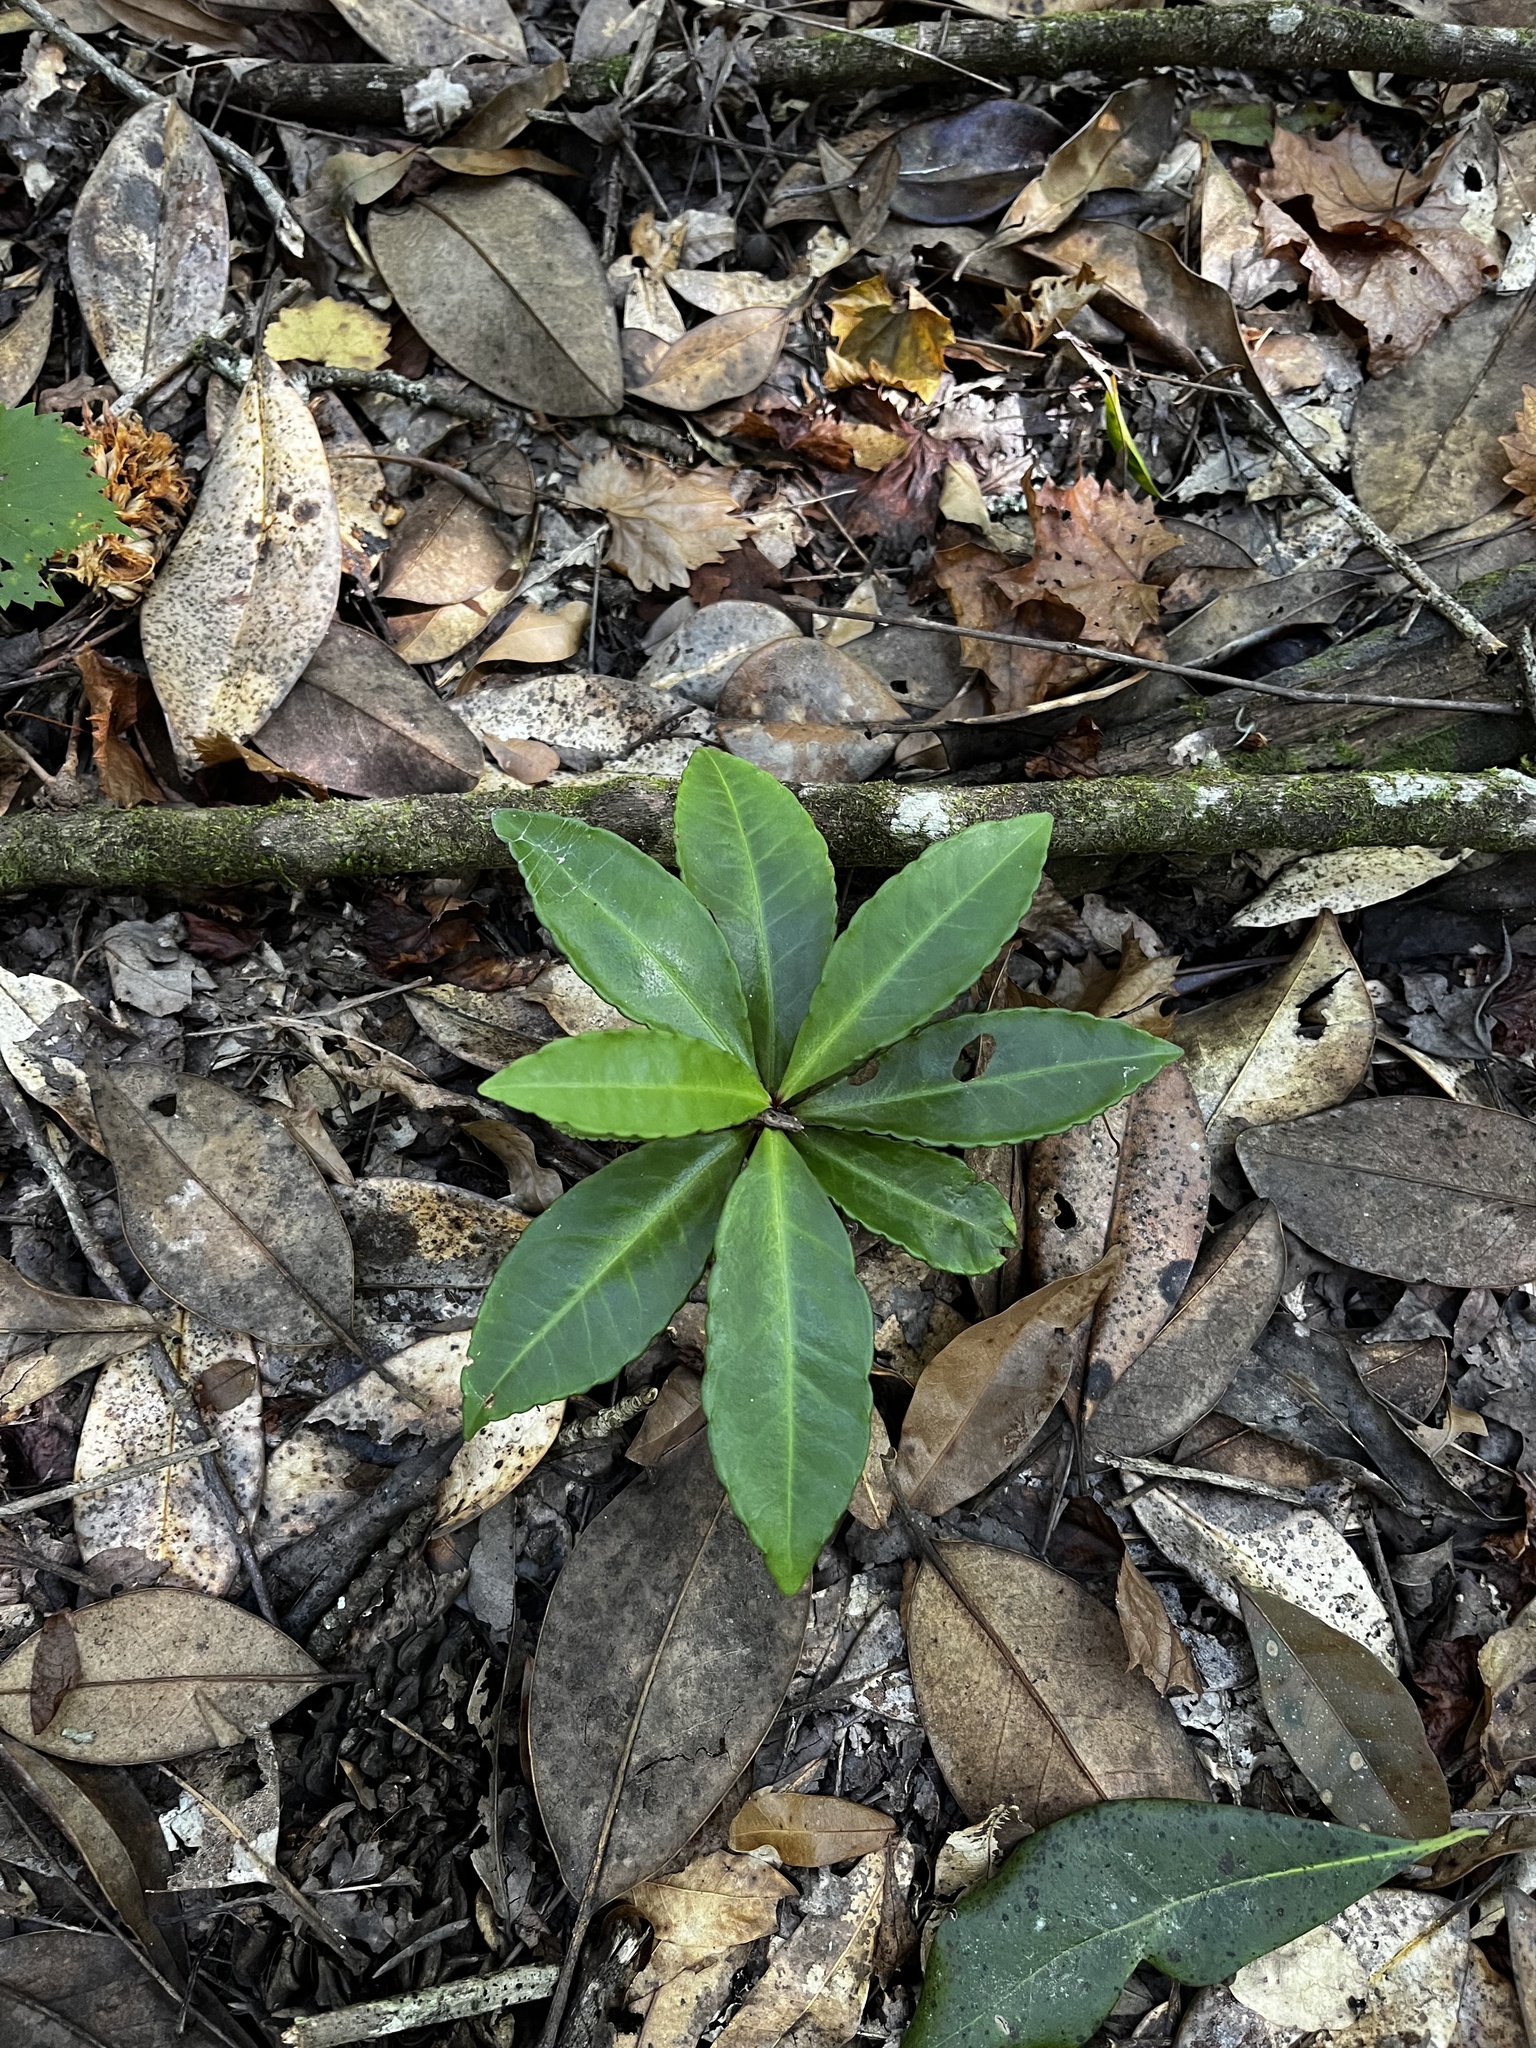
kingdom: Plantae
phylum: Tracheophyta
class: Magnoliopsida
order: Ericales
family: Primulaceae
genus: Ardisia
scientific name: Ardisia crenata
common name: Hen's eyes
